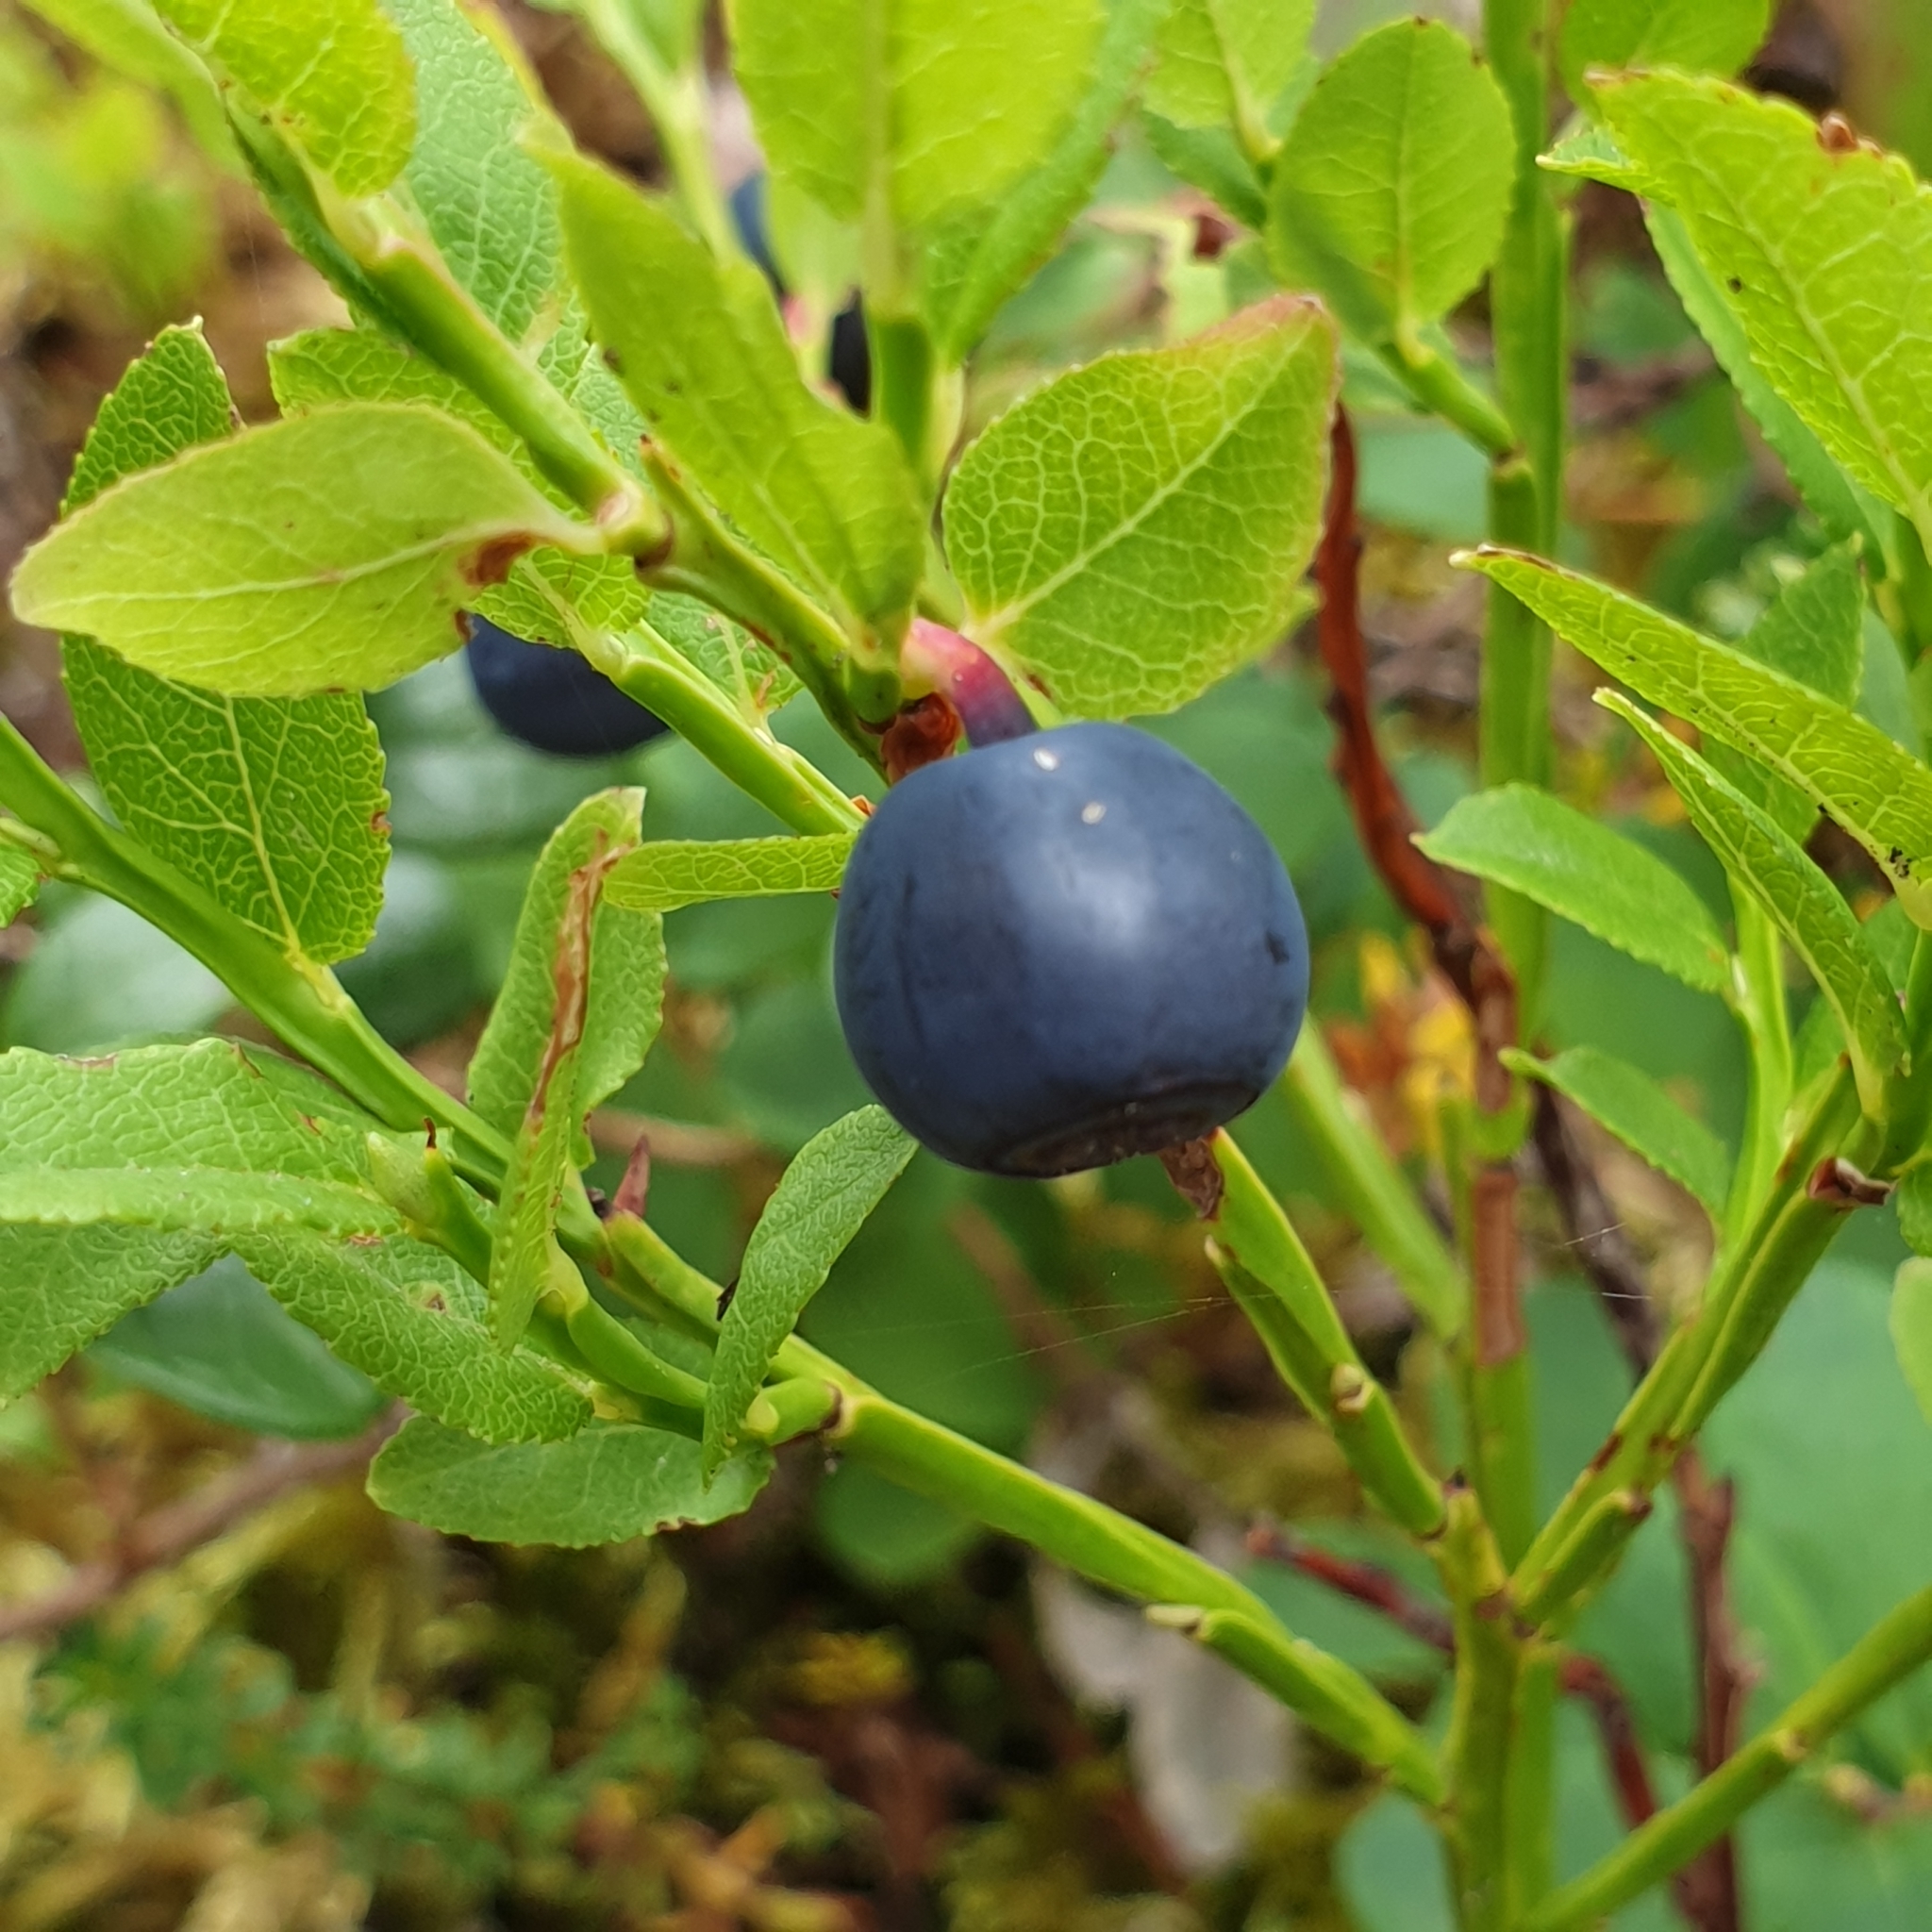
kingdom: Plantae
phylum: Tracheophyta
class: Magnoliopsida
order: Ericales
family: Ericaceae
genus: Vaccinium
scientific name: Vaccinium myrtillus
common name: Bilberry
